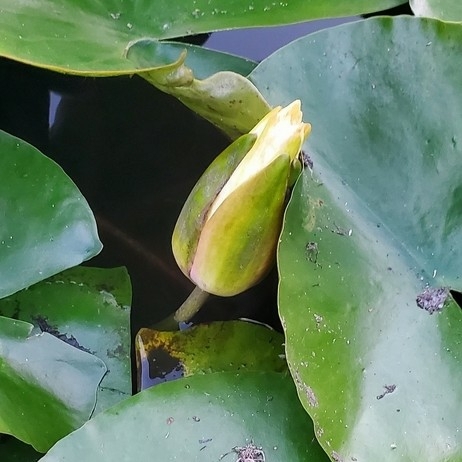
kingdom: Plantae
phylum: Tracheophyta
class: Magnoliopsida
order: Nymphaeales
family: Nymphaeaceae
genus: Nymphaea
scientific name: Nymphaea odorata
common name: Fragrant water-lily
